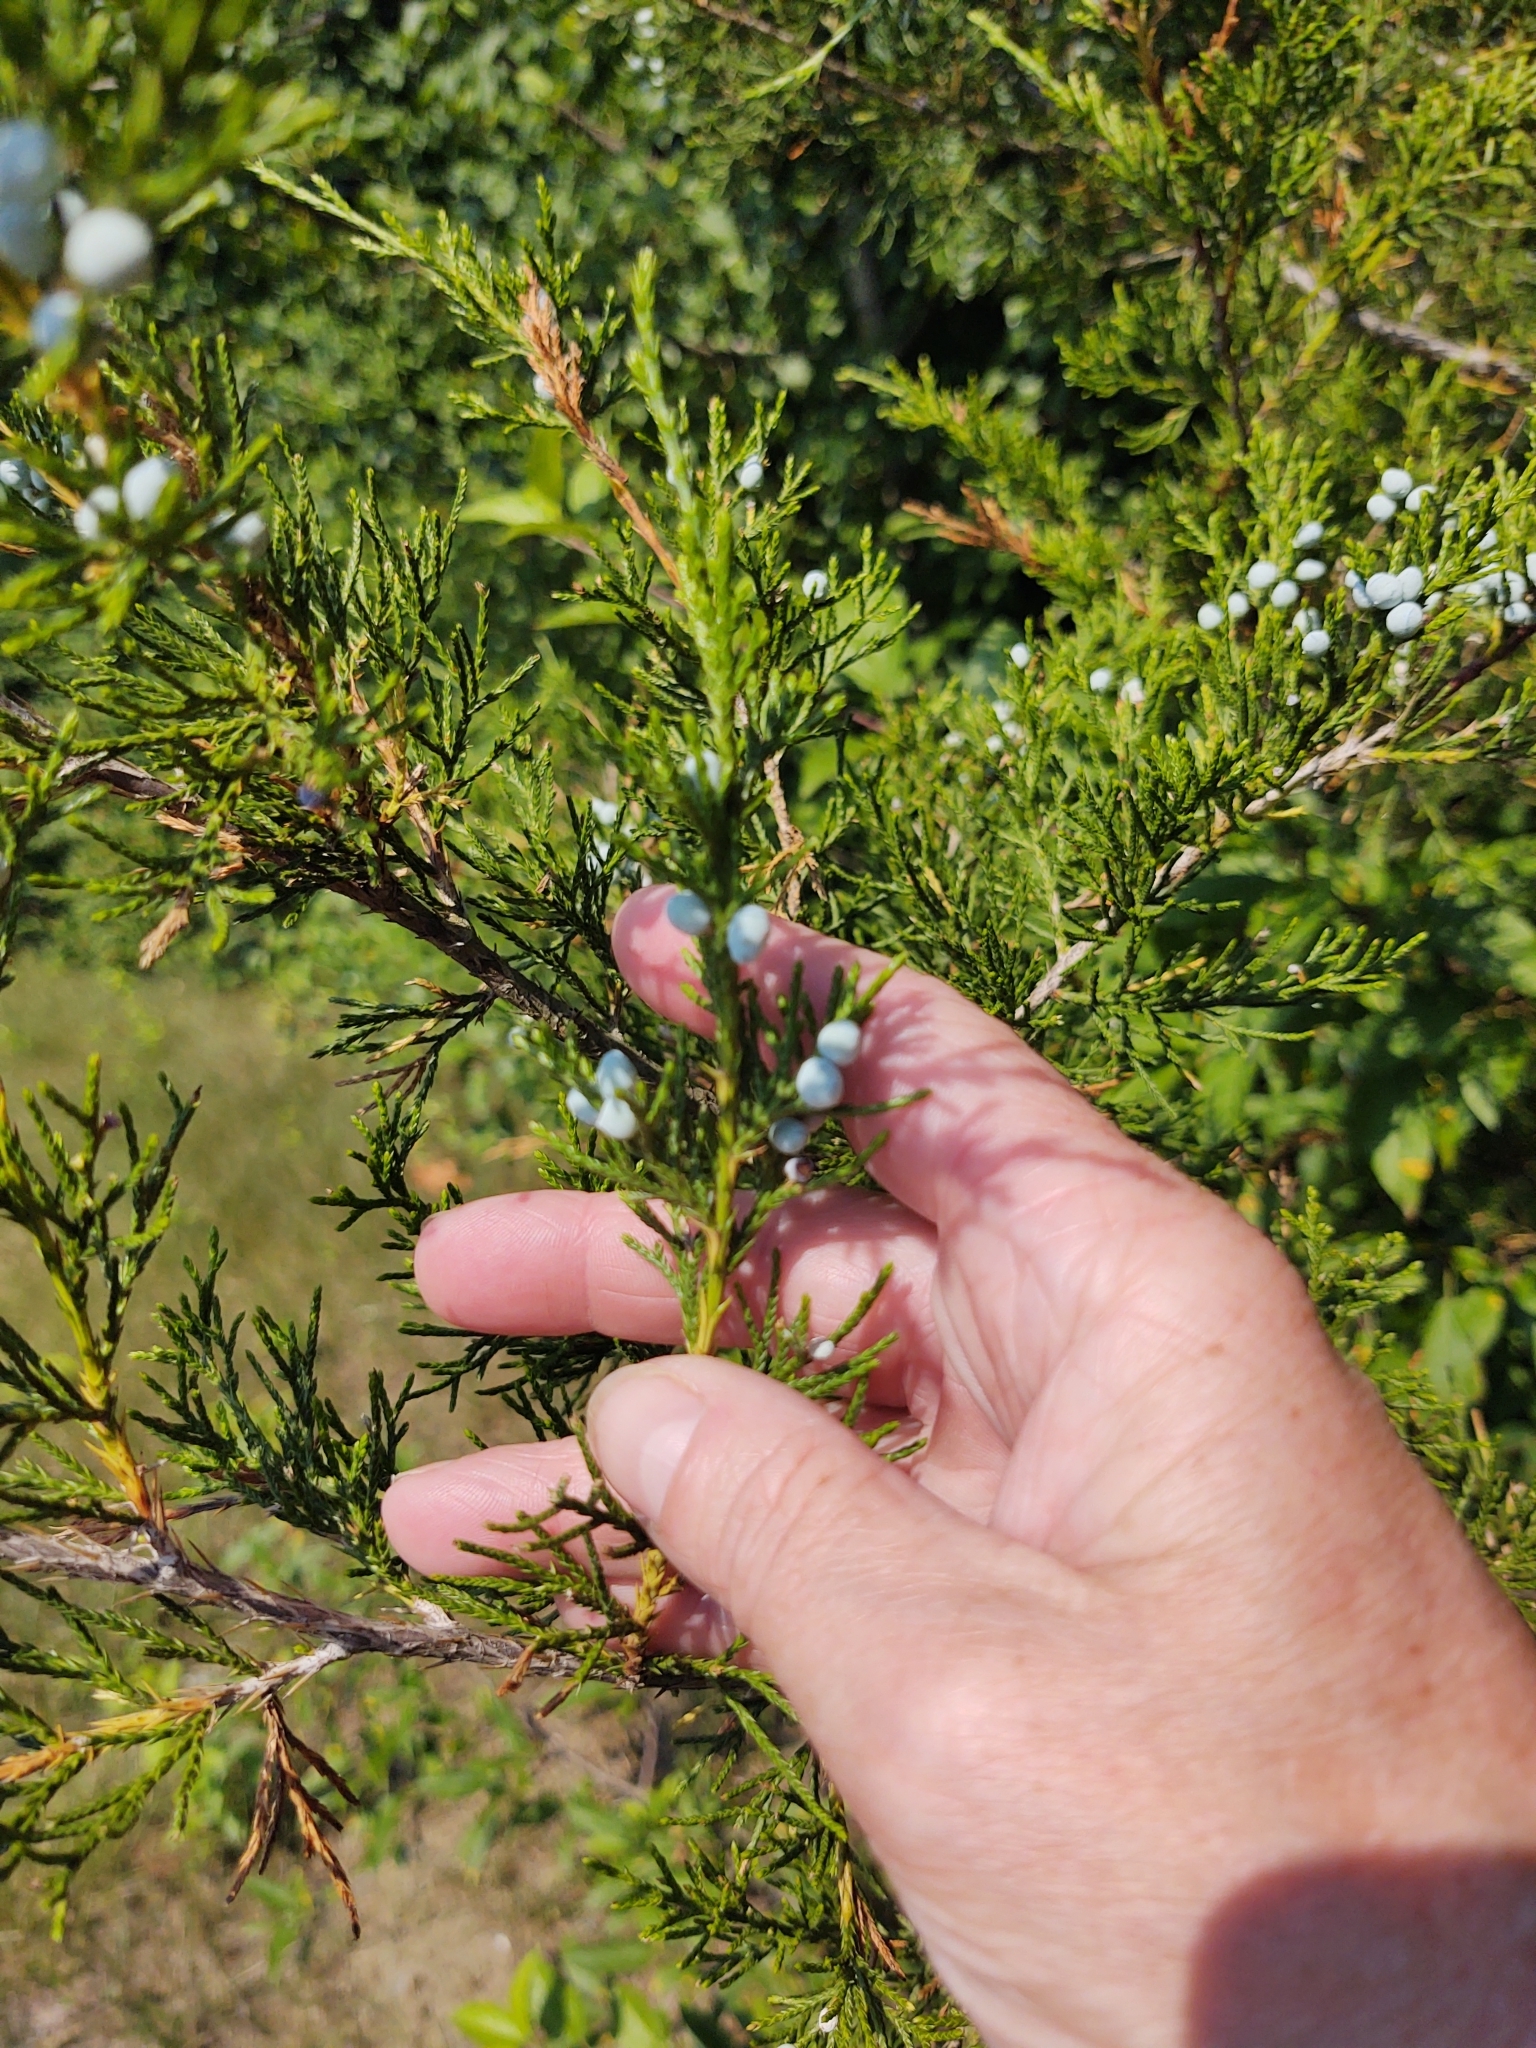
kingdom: Plantae
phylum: Tracheophyta
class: Pinopsida
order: Pinales
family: Cupressaceae
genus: Juniperus
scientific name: Juniperus virginiana
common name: Red juniper
